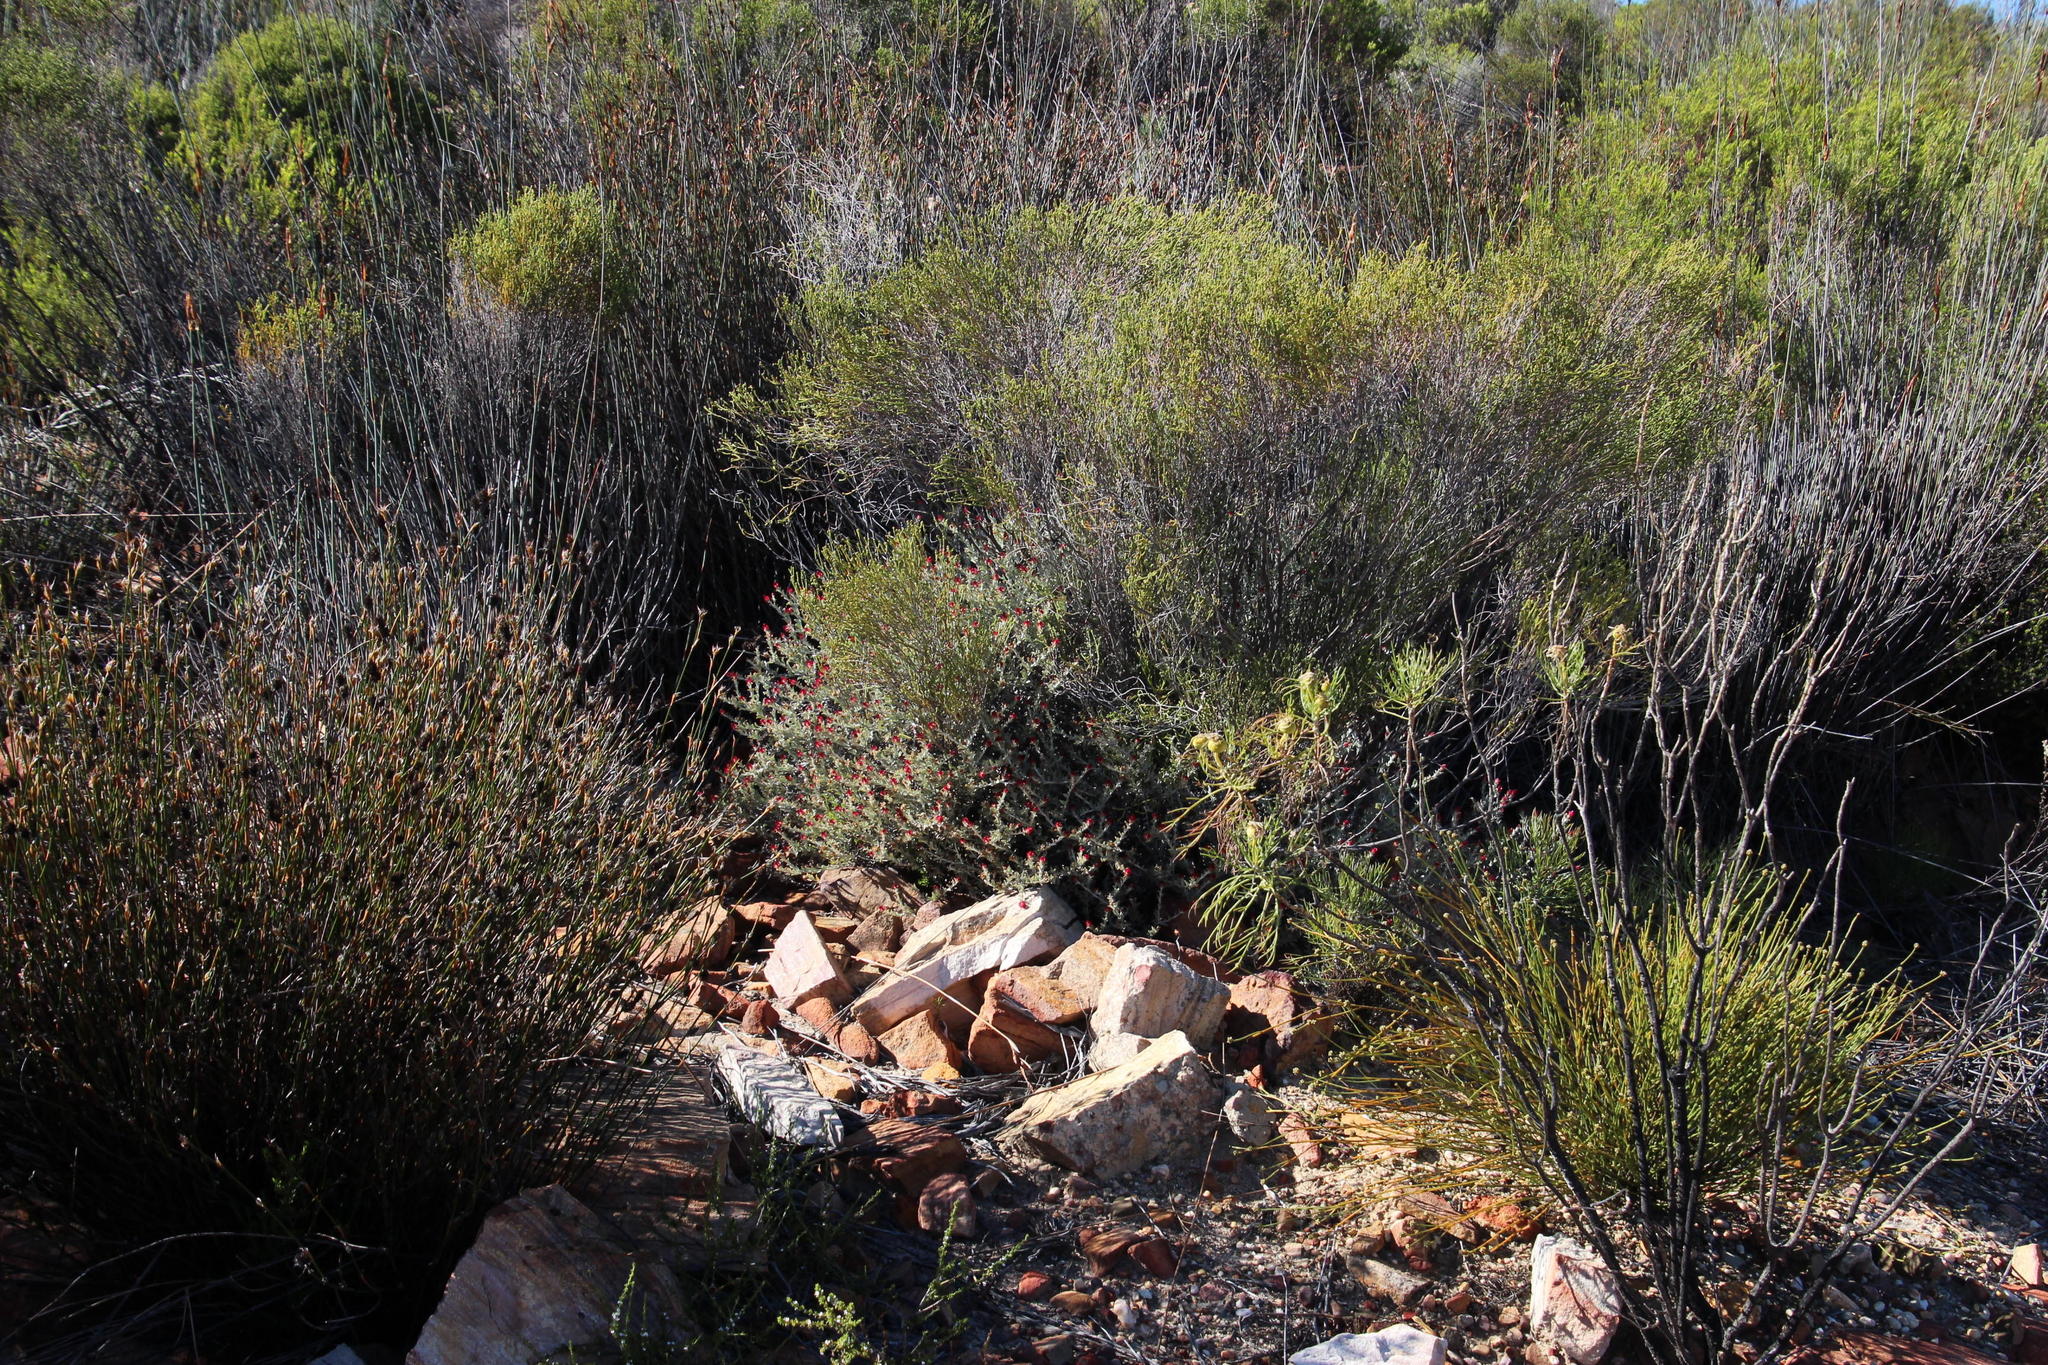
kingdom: Plantae
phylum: Tracheophyta
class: Magnoliopsida
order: Asterales
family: Asteraceae
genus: Syncarpha
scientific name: Syncarpha dregeana
